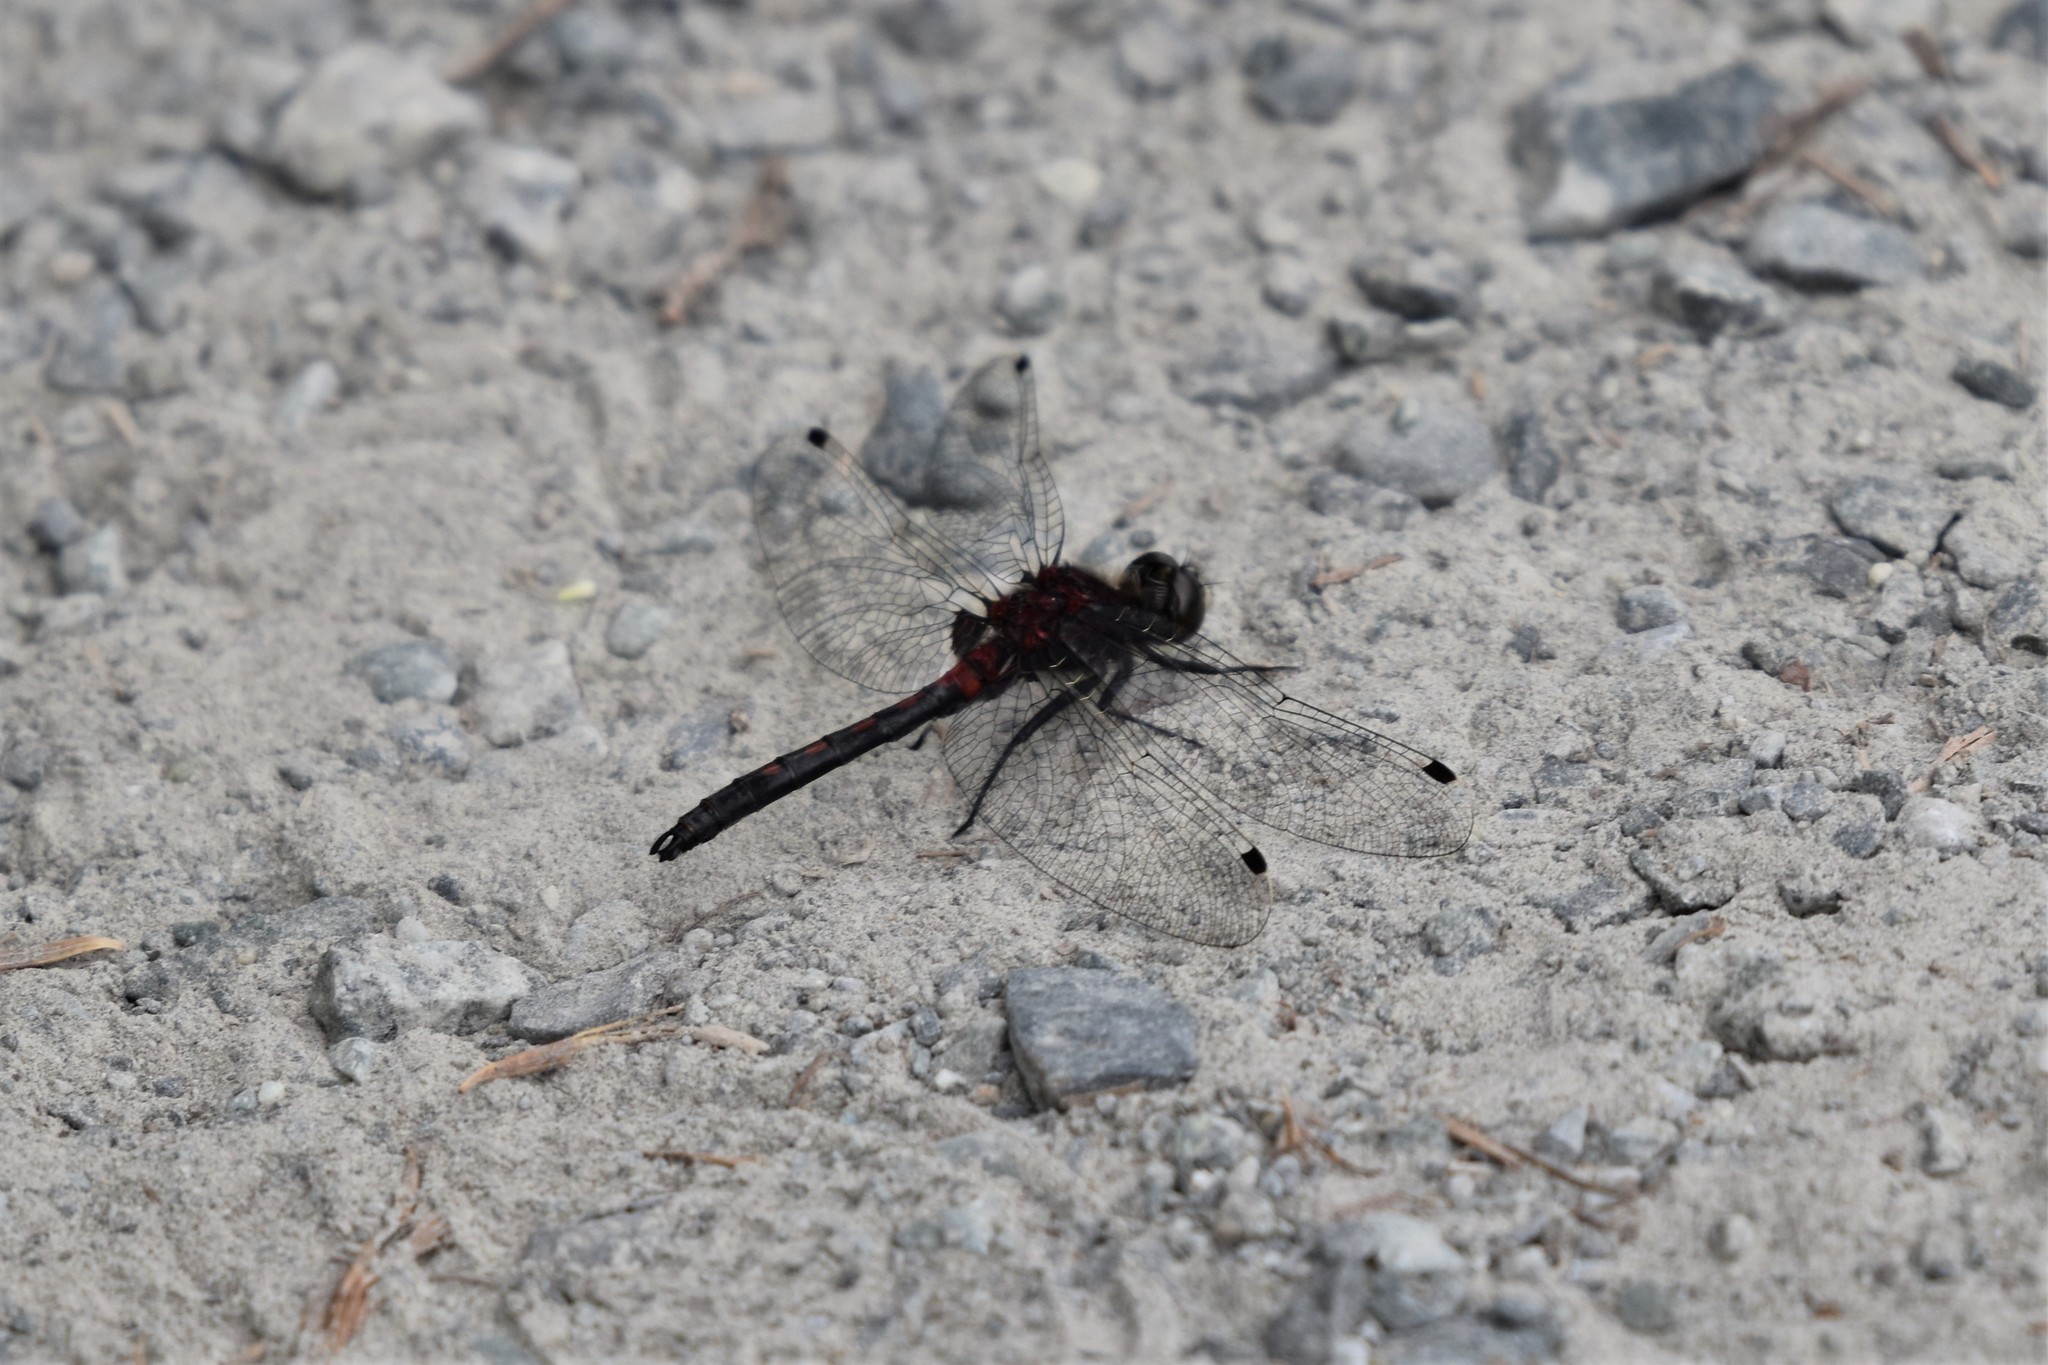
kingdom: Animalia
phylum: Arthropoda
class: Insecta
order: Odonata
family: Libellulidae
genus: Leucorrhinia
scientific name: Leucorrhinia hudsonica
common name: Hudsonian whiteface
